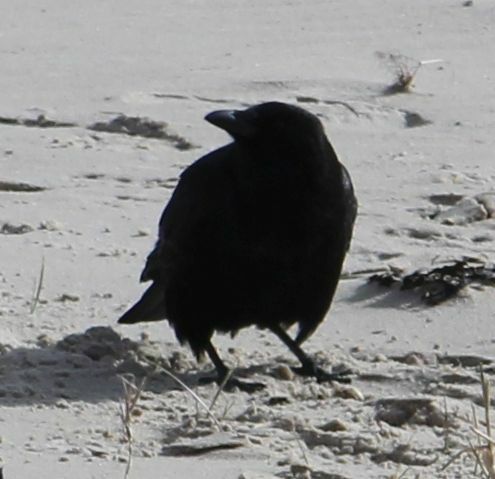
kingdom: Animalia
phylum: Chordata
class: Aves
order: Passeriformes
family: Corvidae
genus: Corvus
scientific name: Corvus corone
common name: Carrion crow
